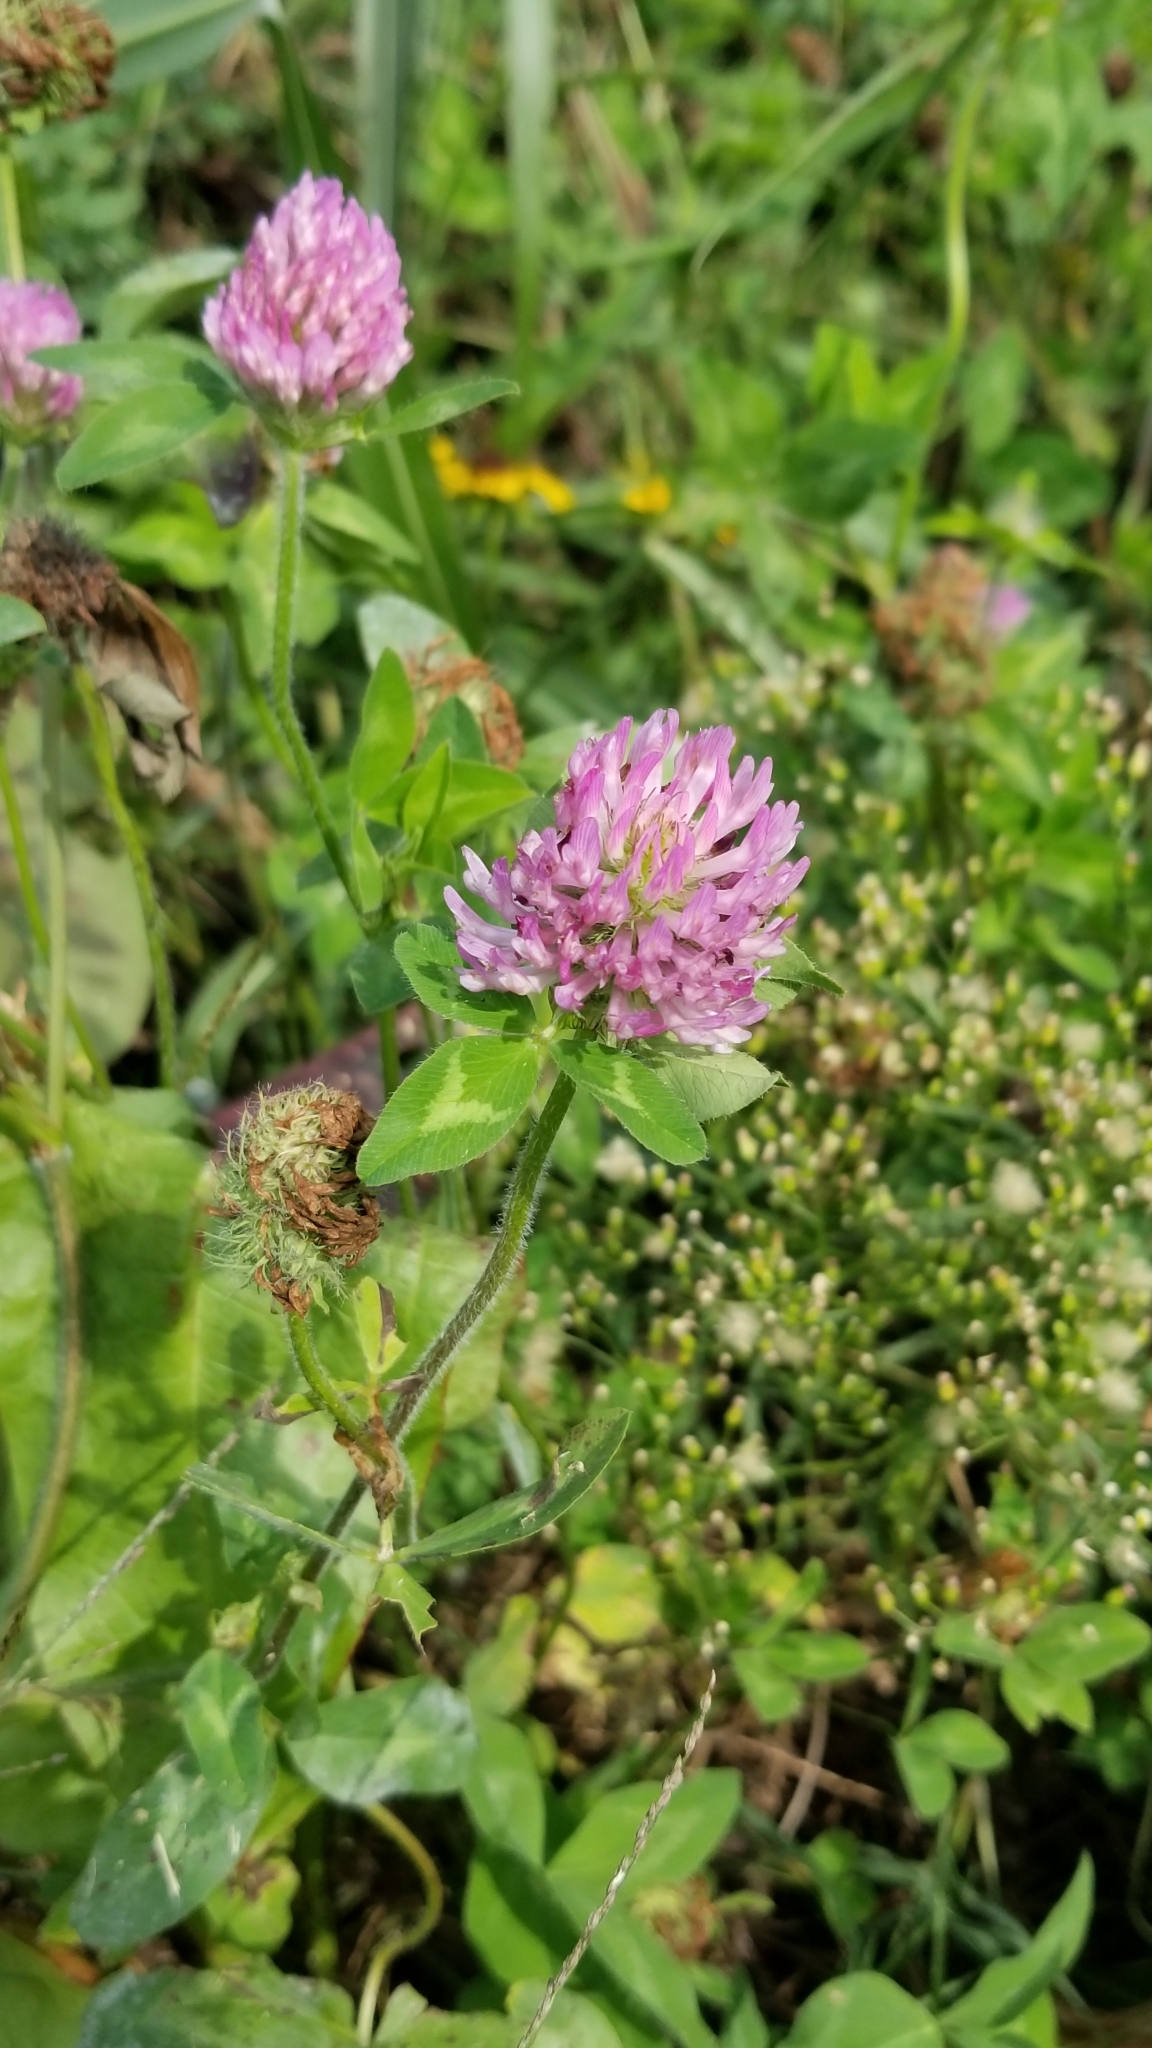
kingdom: Plantae
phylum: Tracheophyta
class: Magnoliopsida
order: Fabales
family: Fabaceae
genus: Trifolium
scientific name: Trifolium pratense
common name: Red clover
